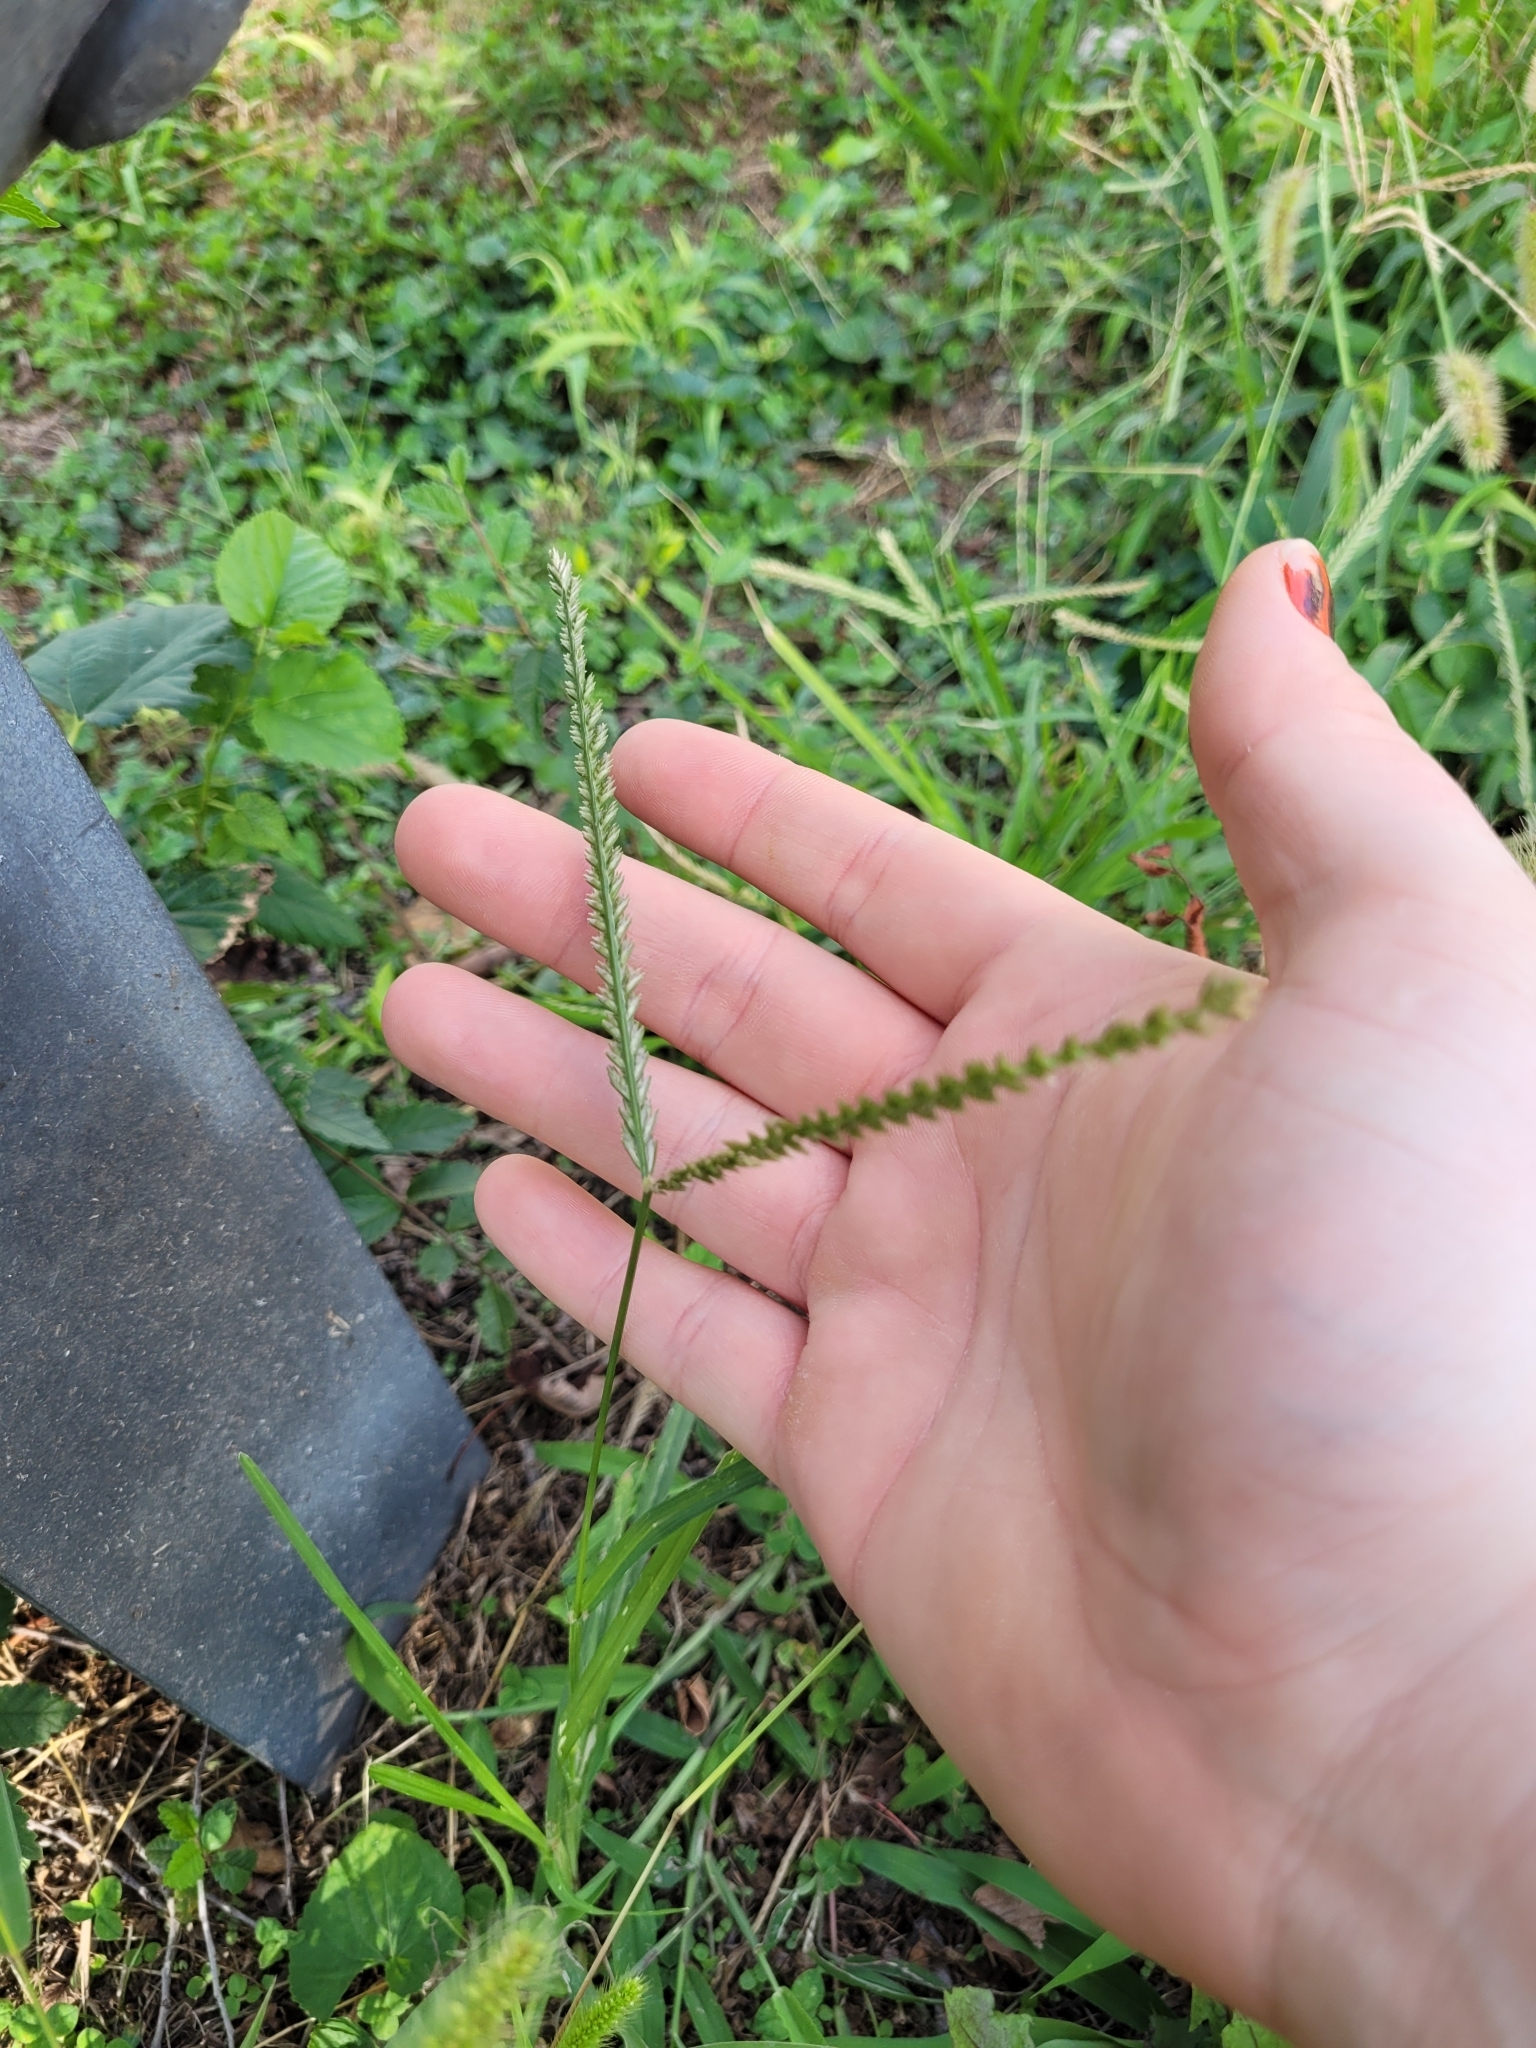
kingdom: Plantae
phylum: Tracheophyta
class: Liliopsida
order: Poales
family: Poaceae
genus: Eleusine
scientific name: Eleusine indica
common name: Yard-grass
